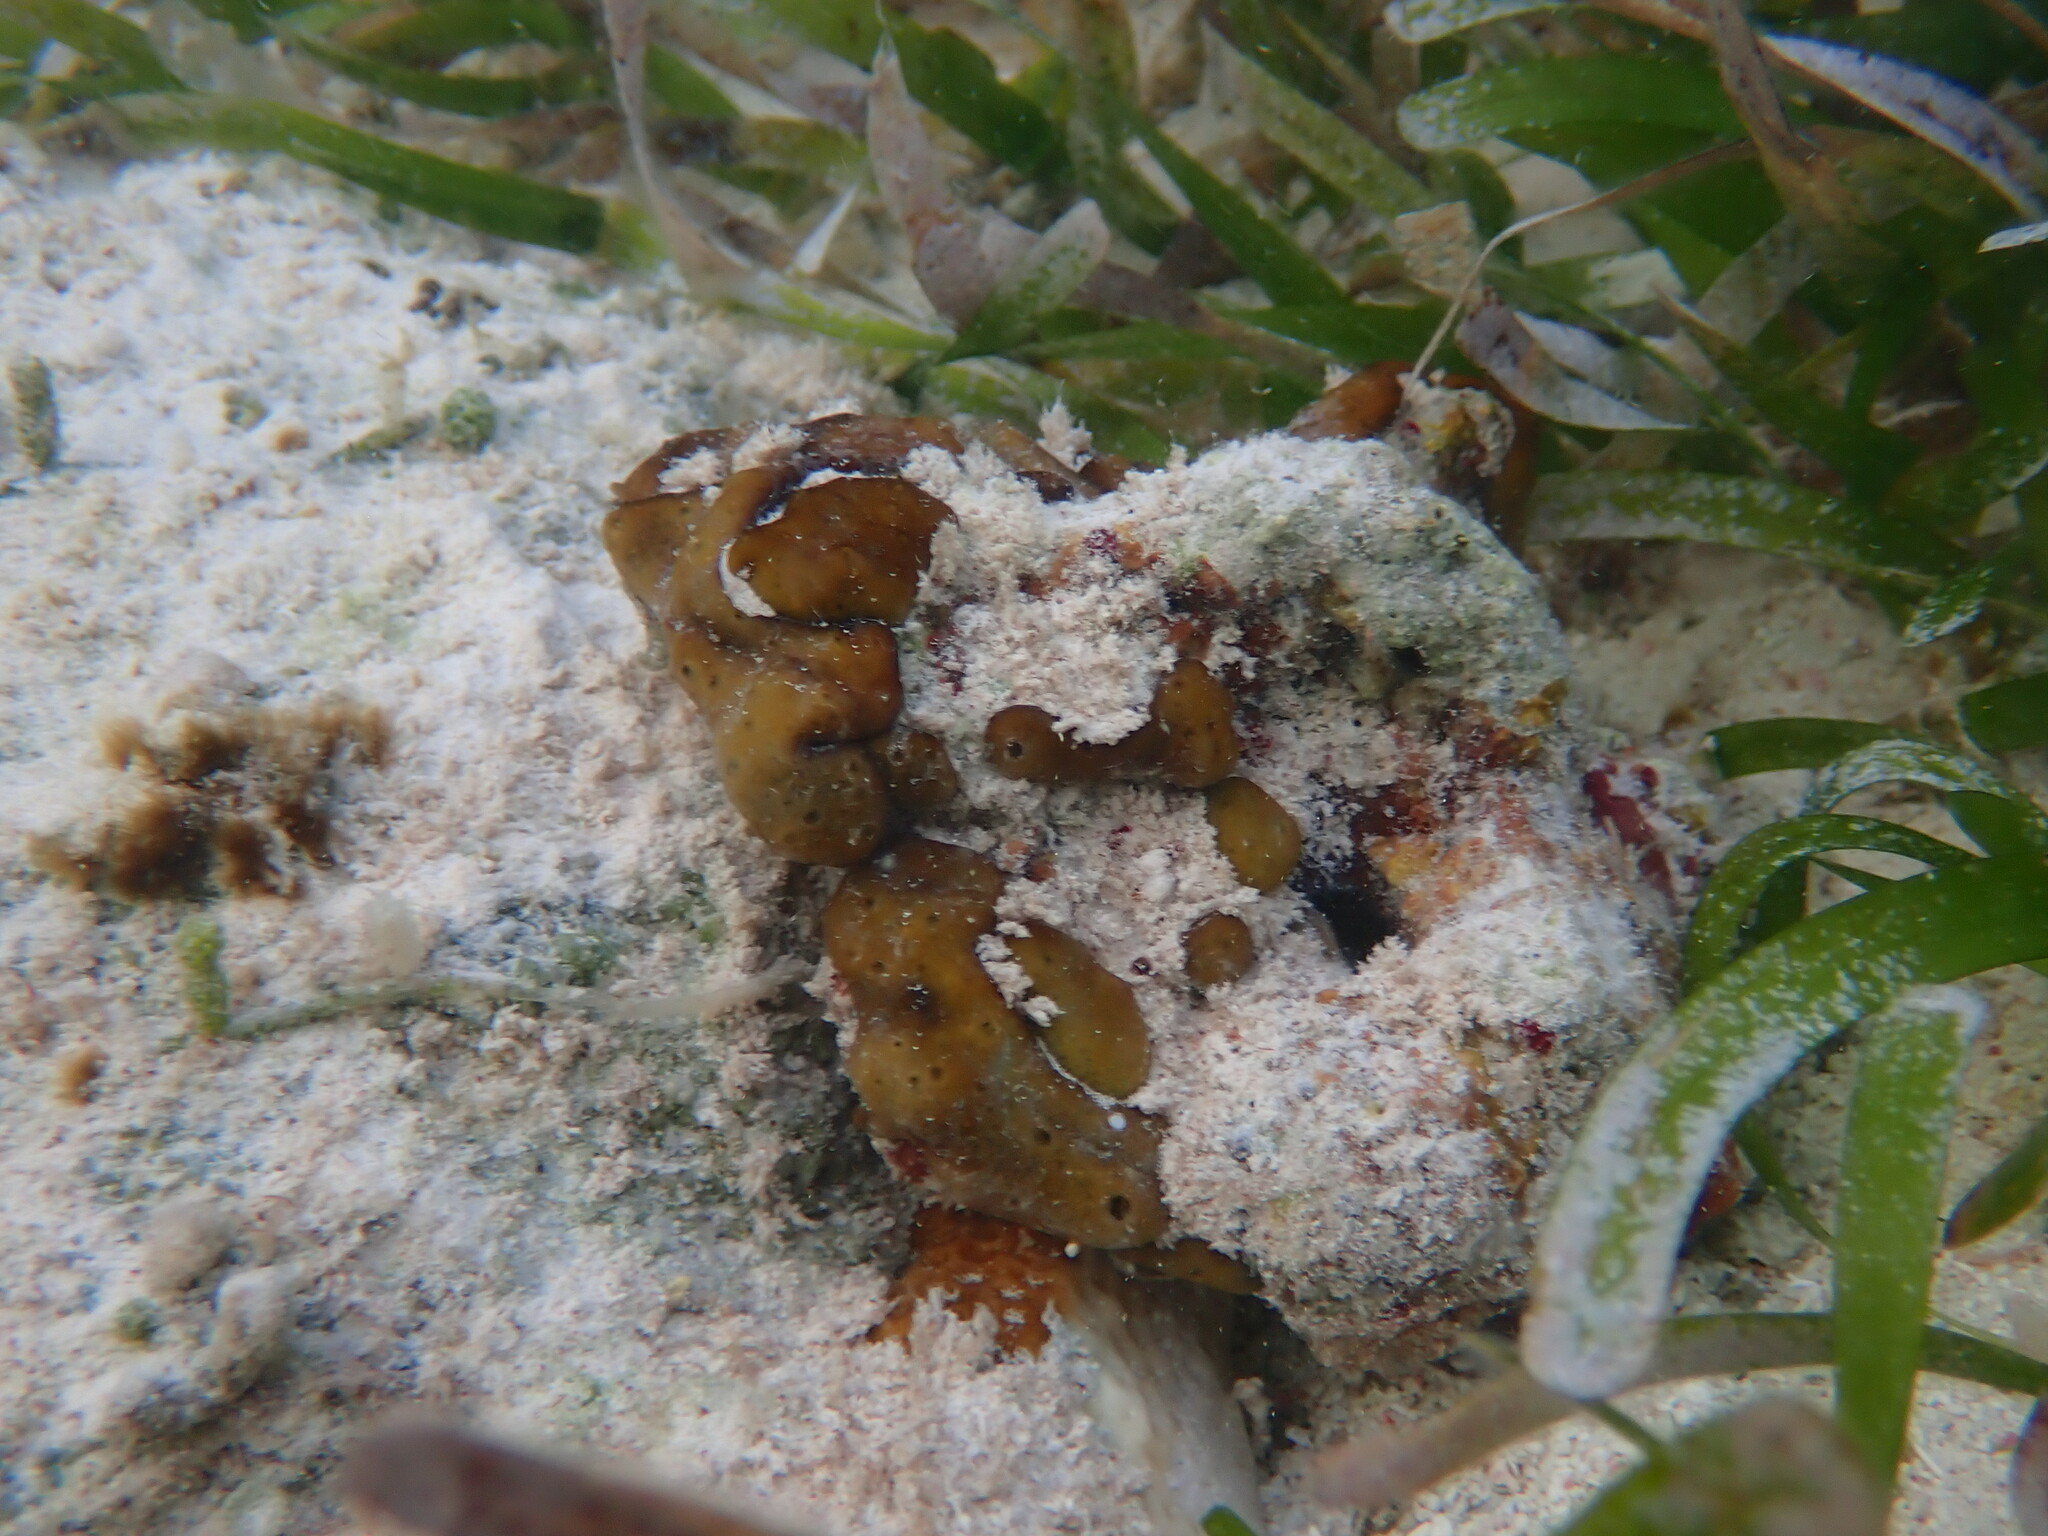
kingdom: Animalia
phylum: Porifera
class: Demospongiae
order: Chondrillida
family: Chondrillidae
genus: Chondrilla
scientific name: Chondrilla nucula
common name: Chicken liver sponge
